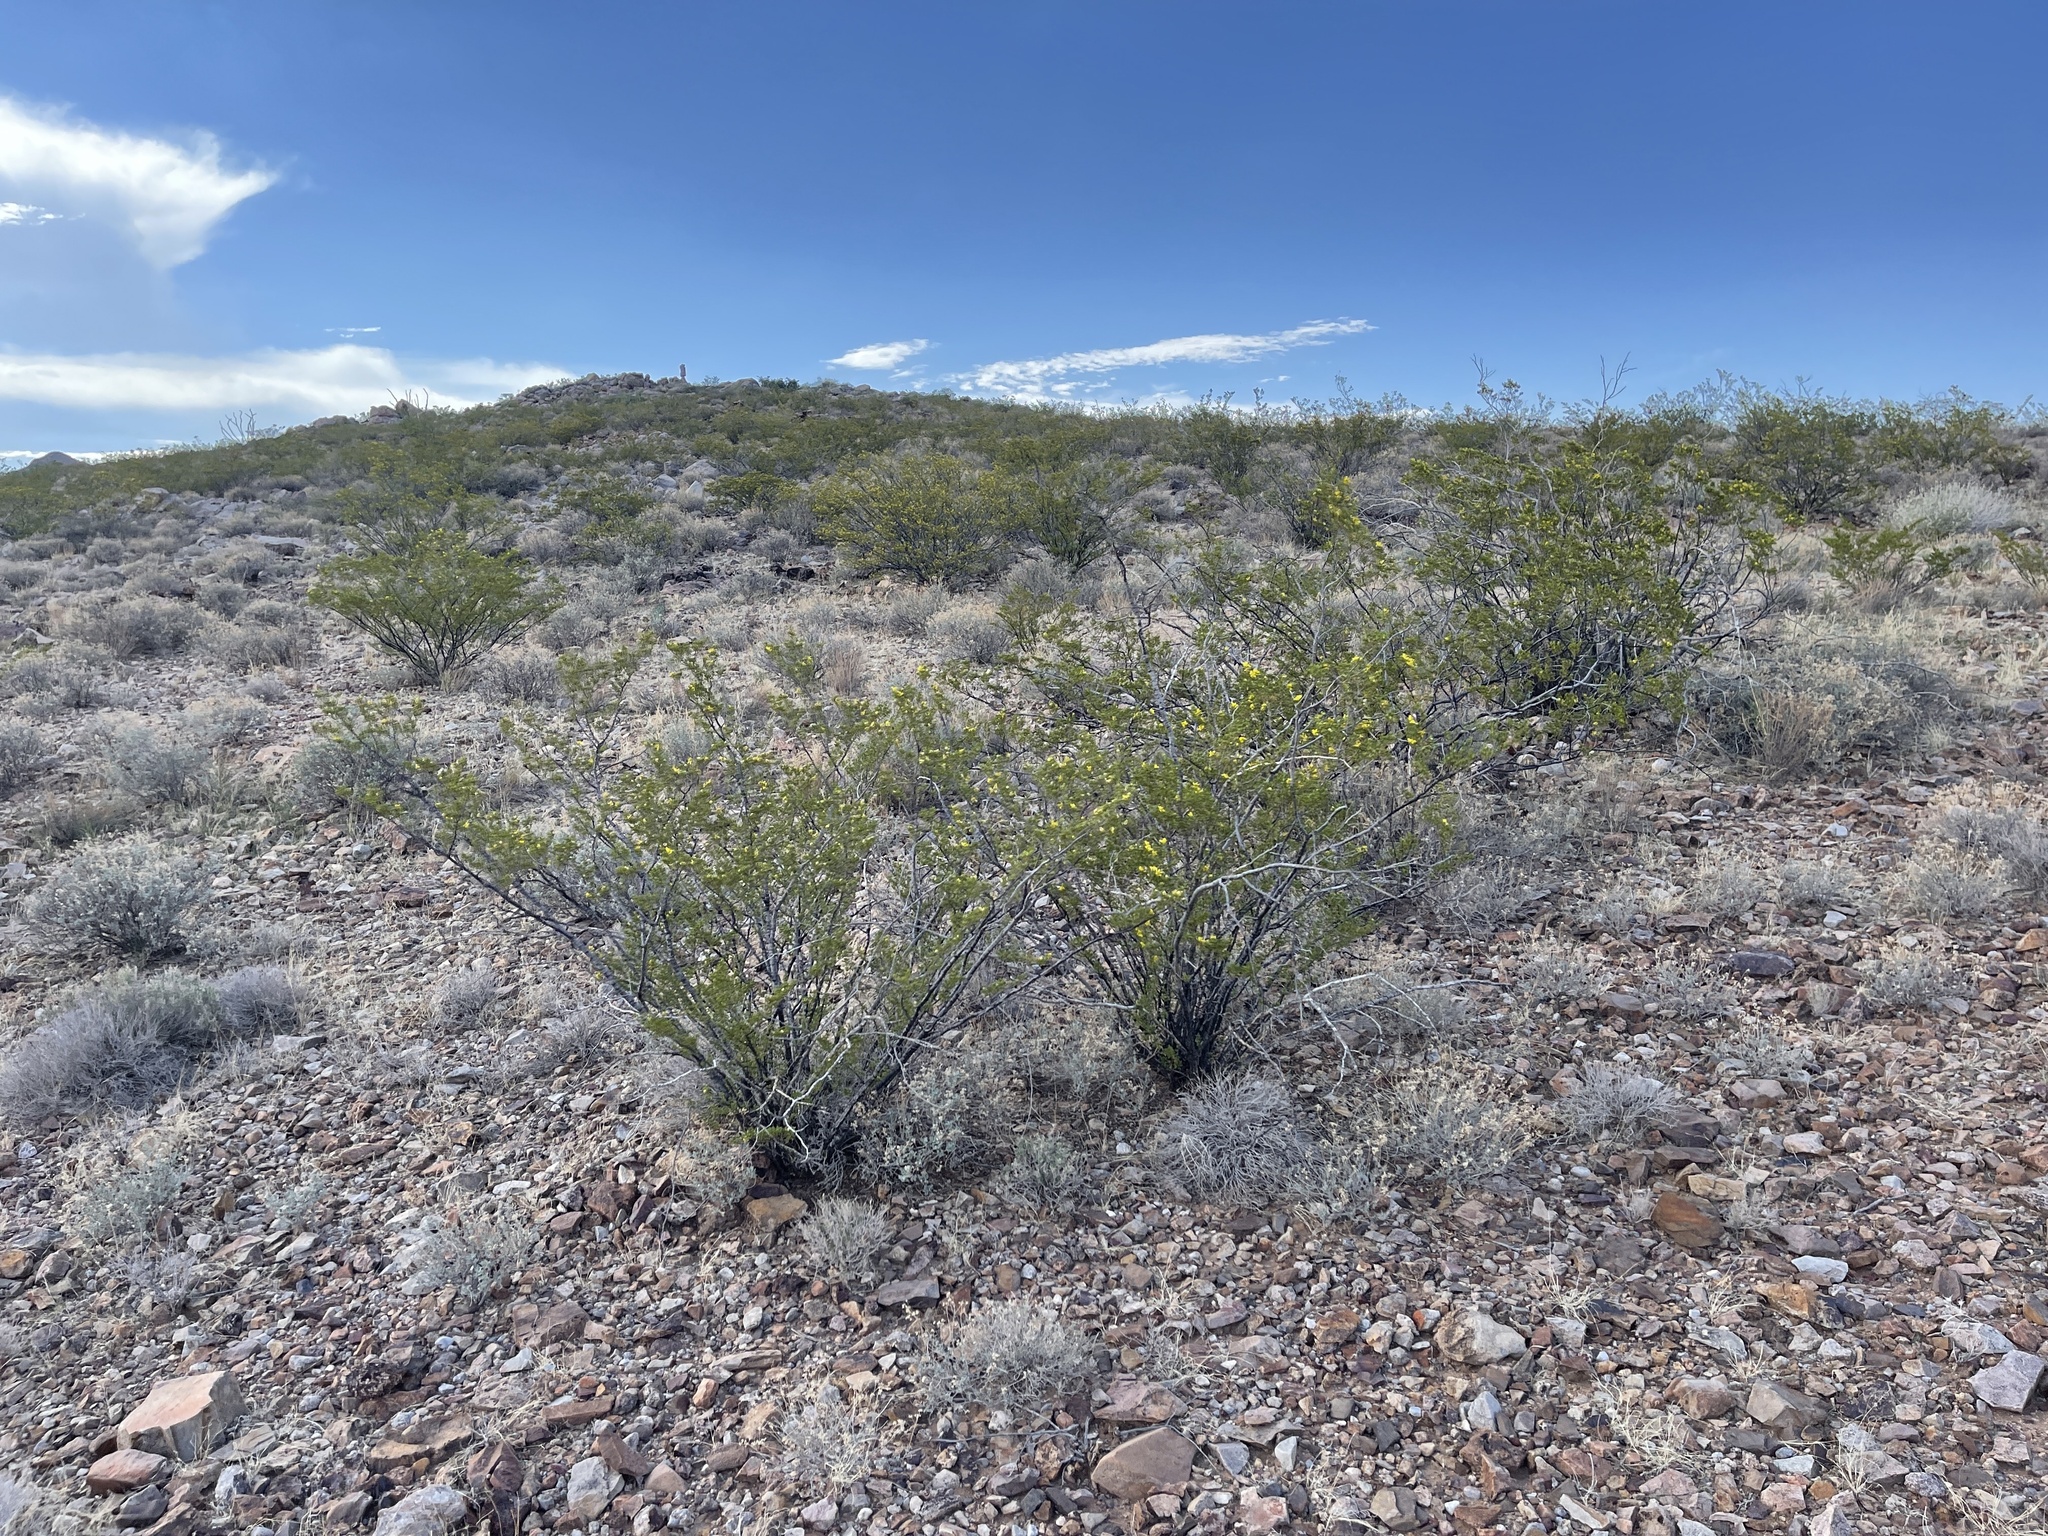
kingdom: Plantae
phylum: Tracheophyta
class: Magnoliopsida
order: Zygophyllales
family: Zygophyllaceae
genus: Larrea
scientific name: Larrea tridentata
